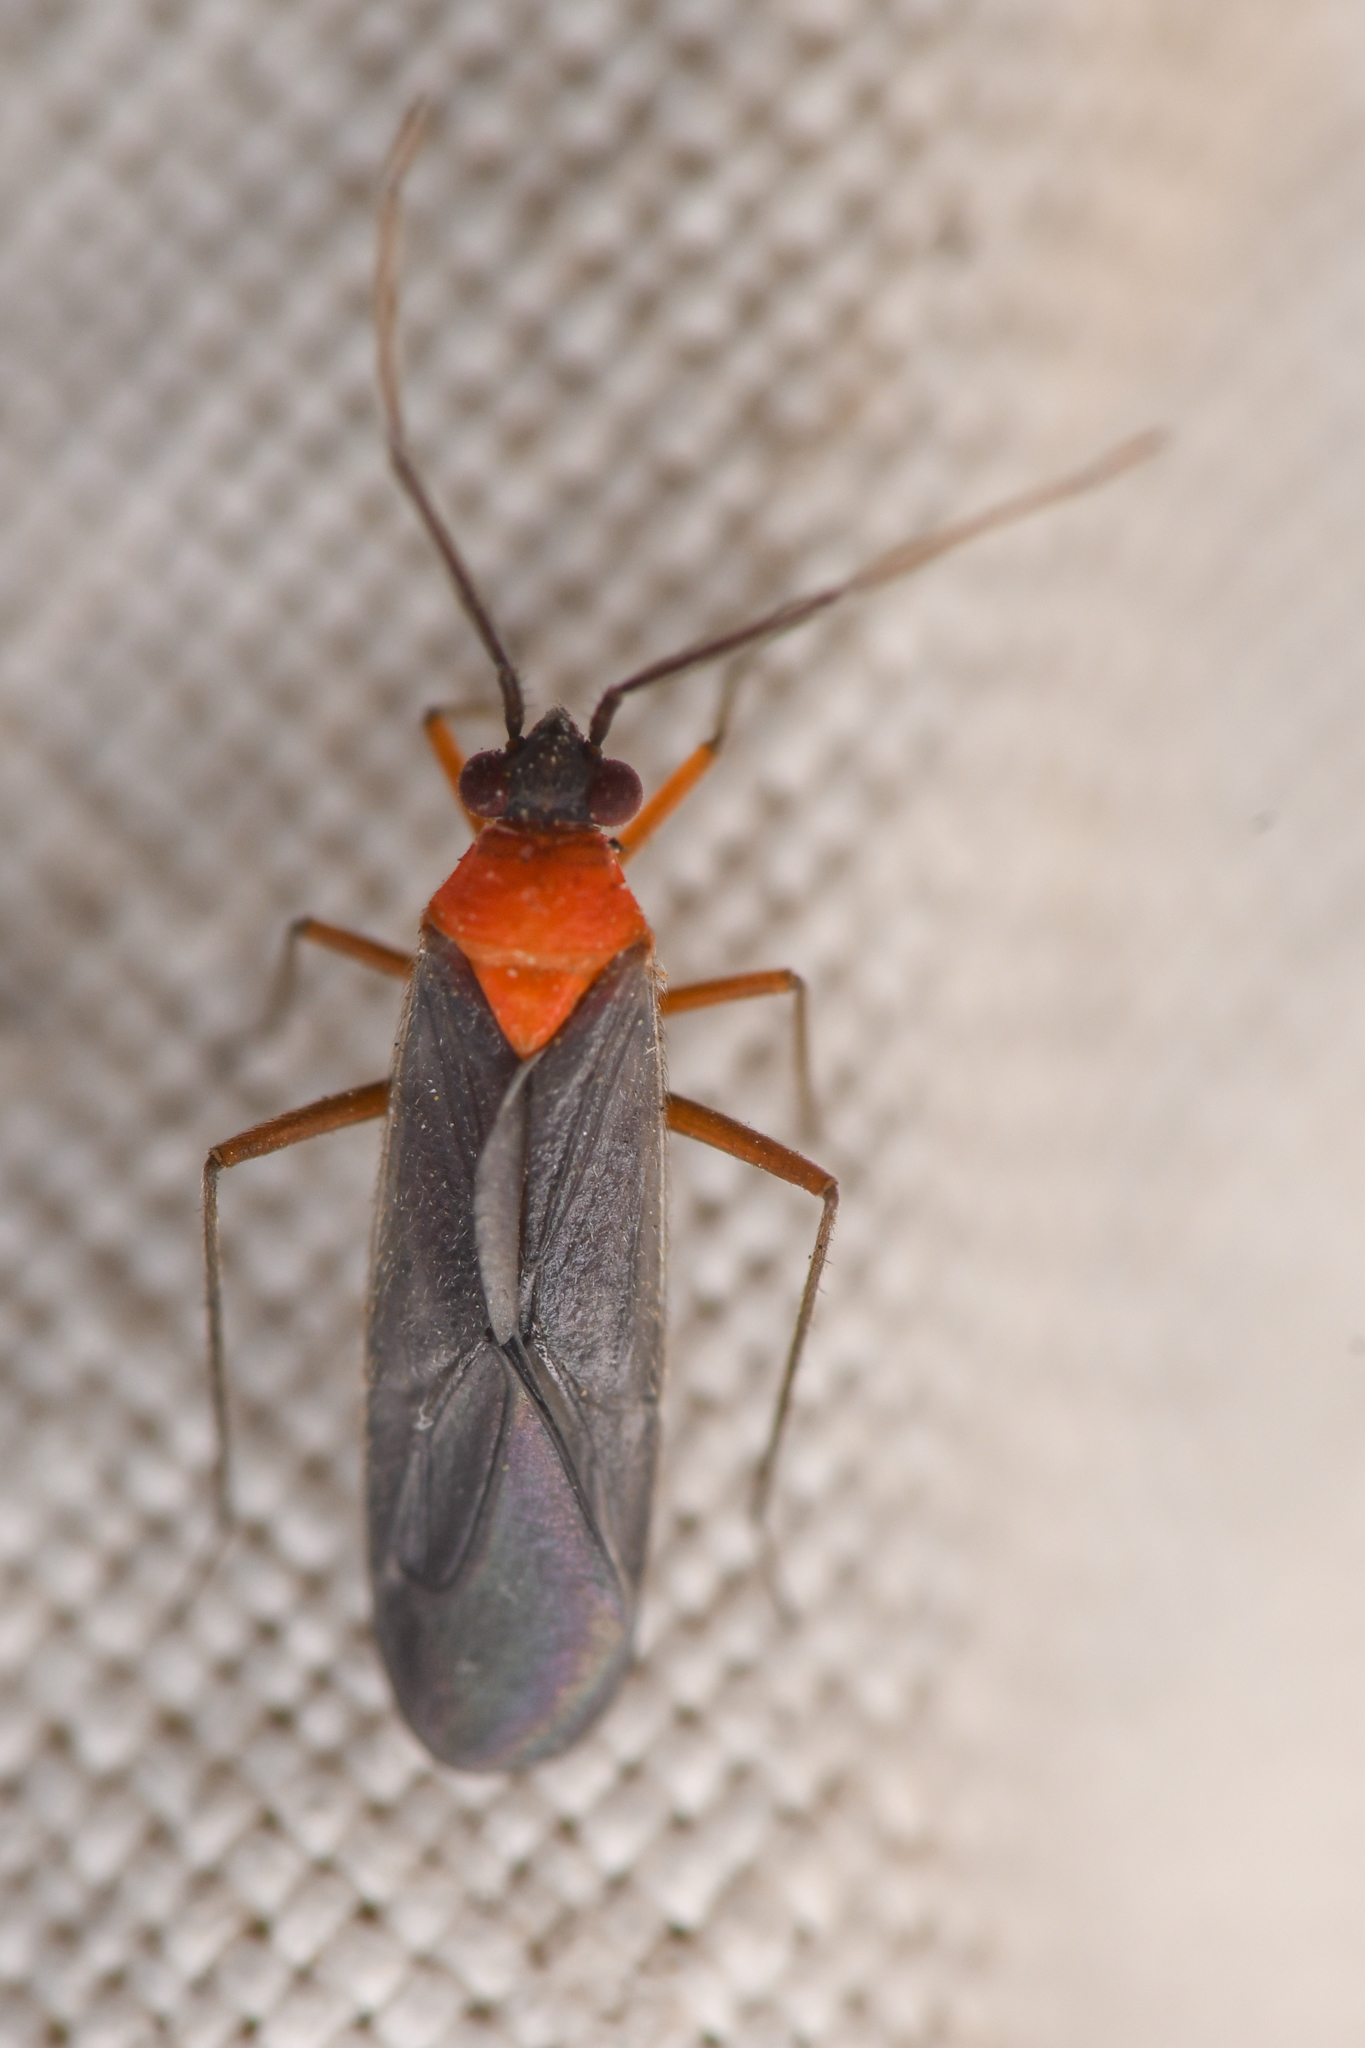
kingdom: Animalia
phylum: Arthropoda
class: Insecta
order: Hemiptera
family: Miridae
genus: Aoplonema
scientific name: Aoplonema nigrum
